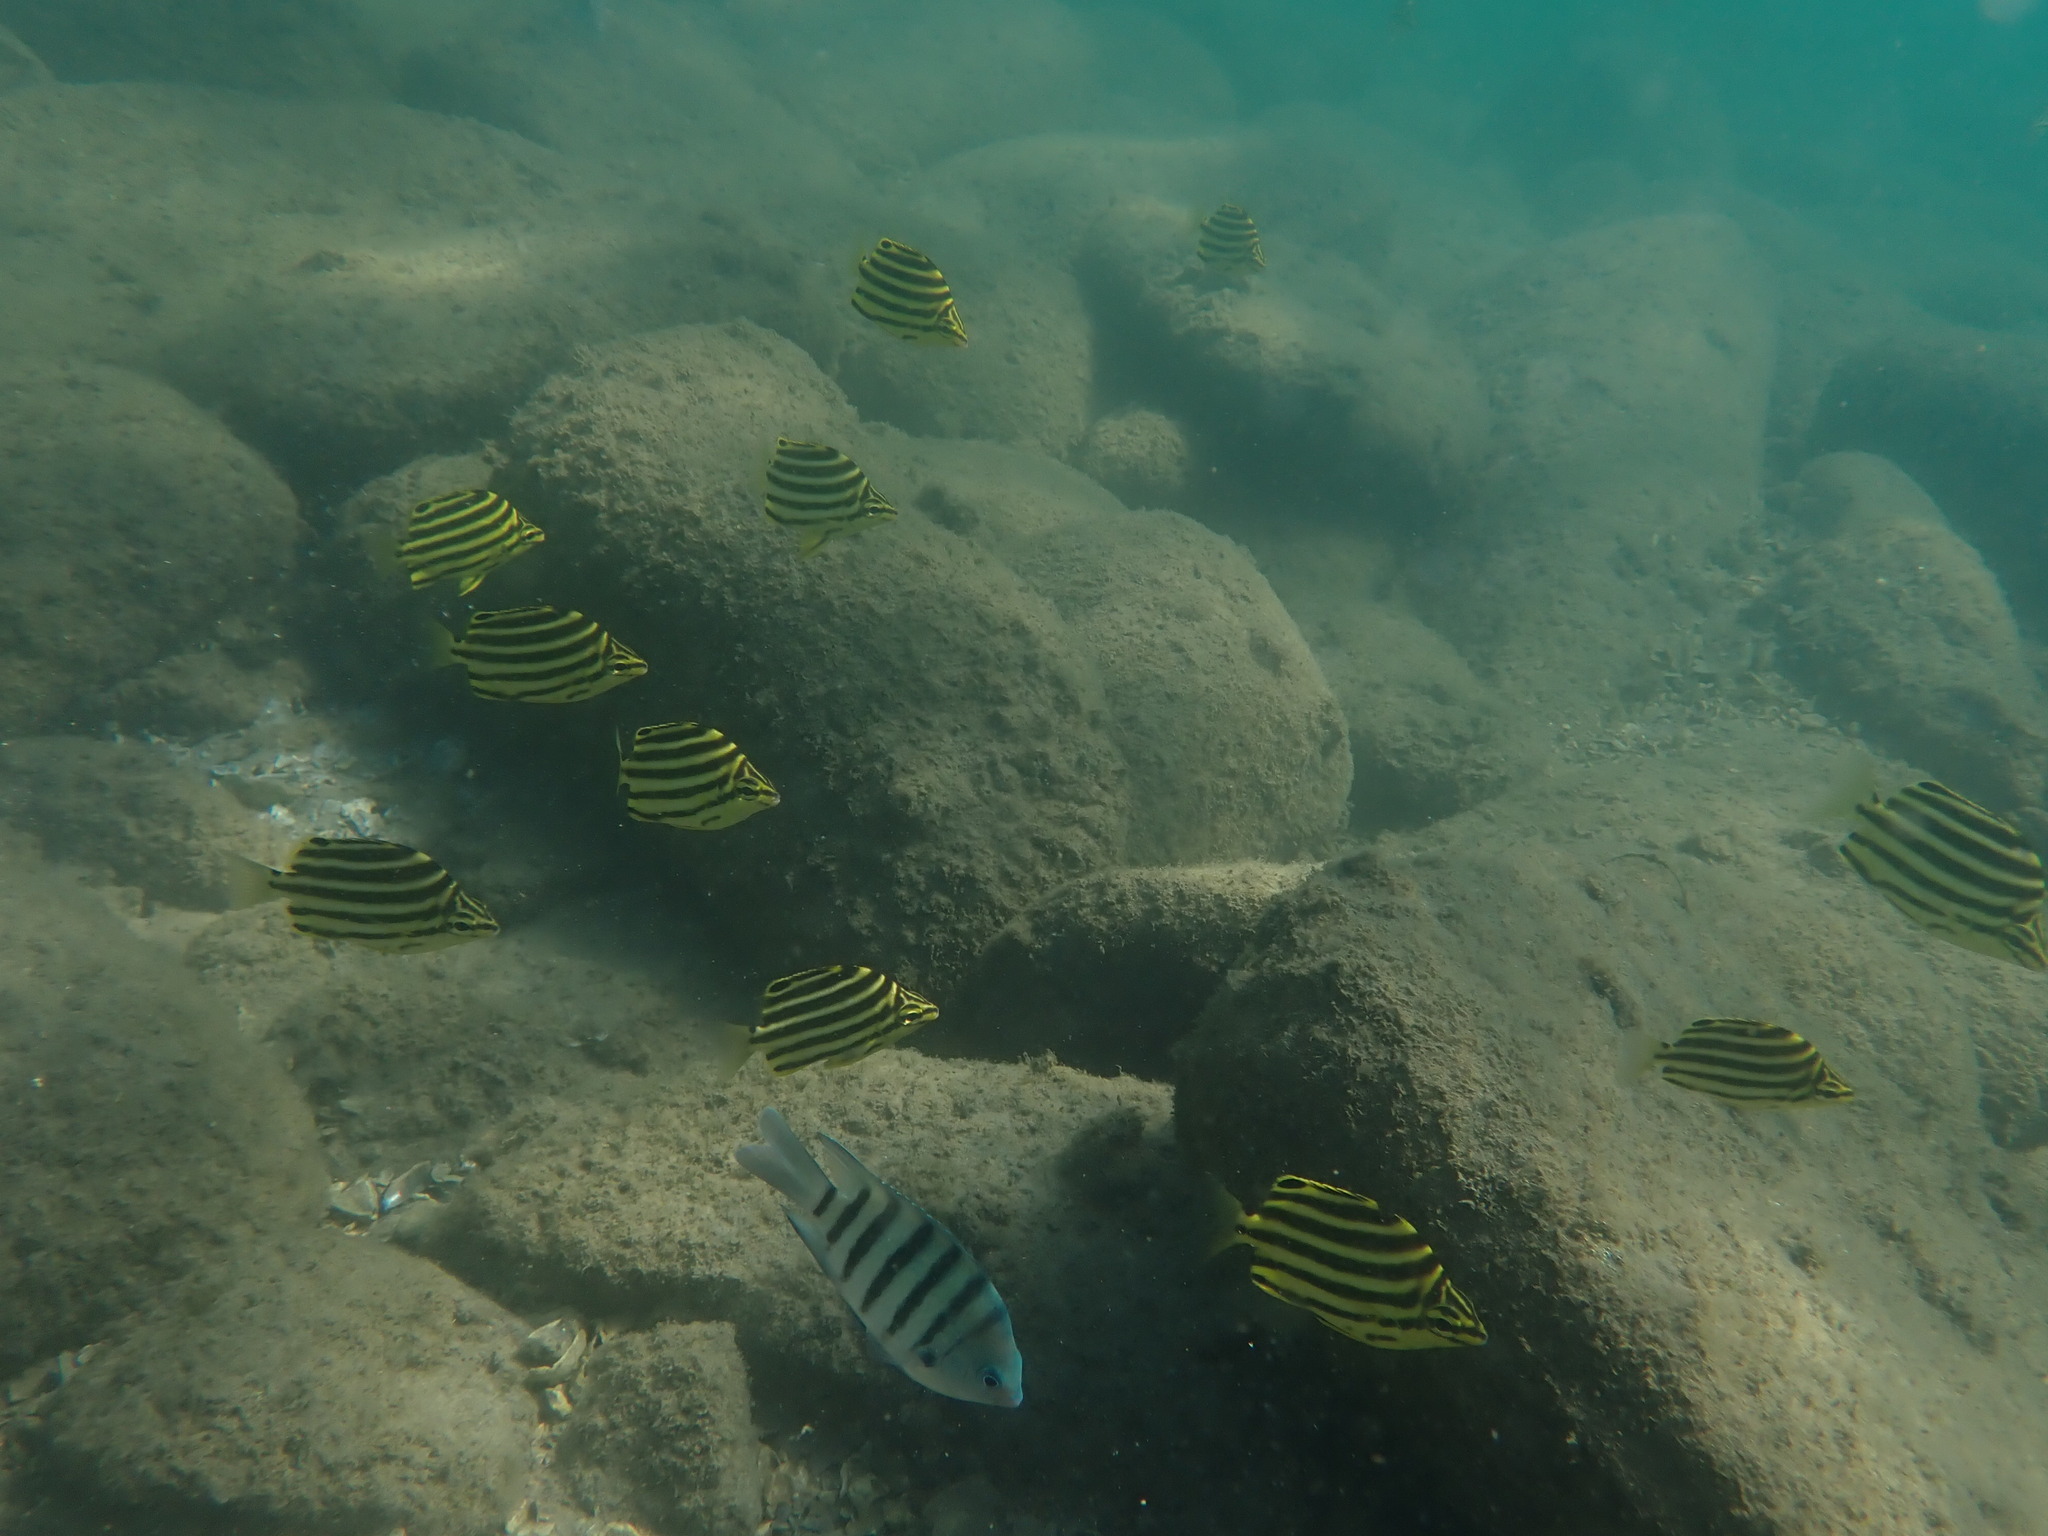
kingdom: Animalia
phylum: Chordata
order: Perciformes
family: Kyphosidae
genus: Microcanthus
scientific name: Microcanthus joyceae
